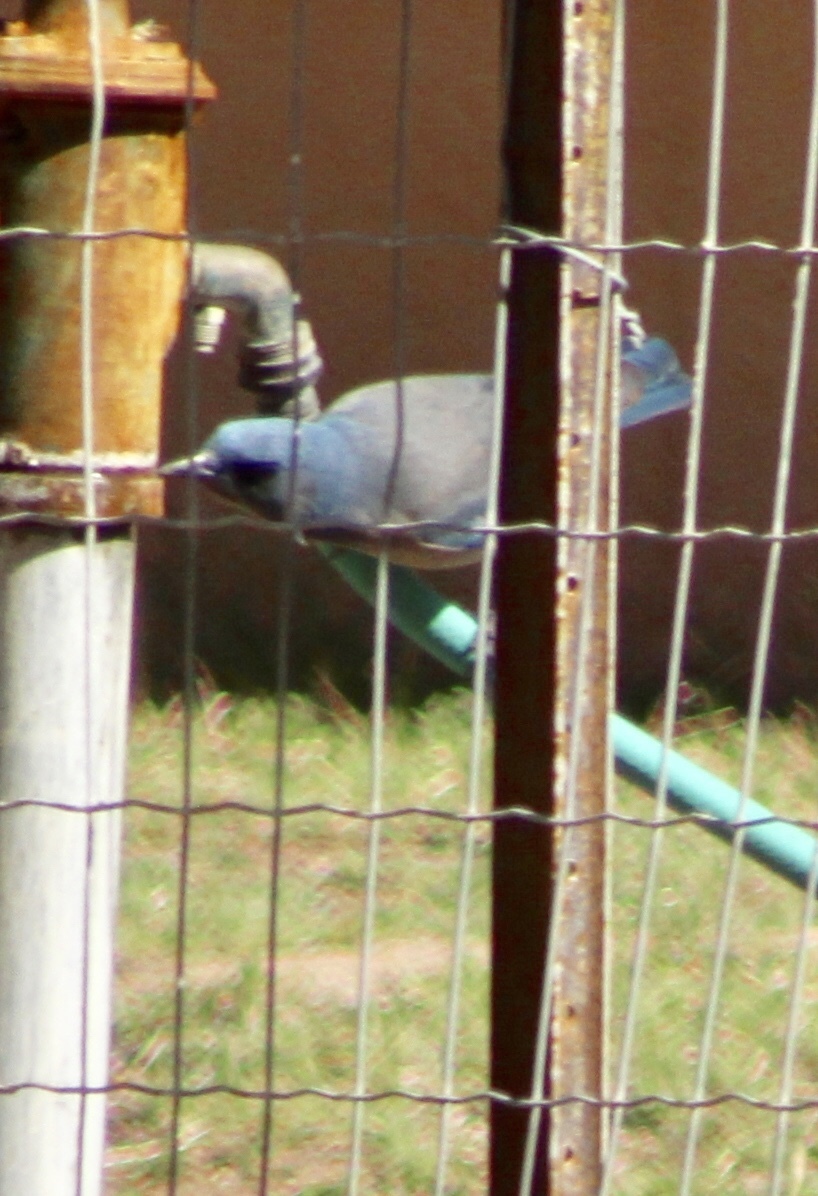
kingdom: Animalia
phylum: Chordata
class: Aves
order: Passeriformes
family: Corvidae
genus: Aphelocoma
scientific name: Aphelocoma wollweberi
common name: Mexican jay
